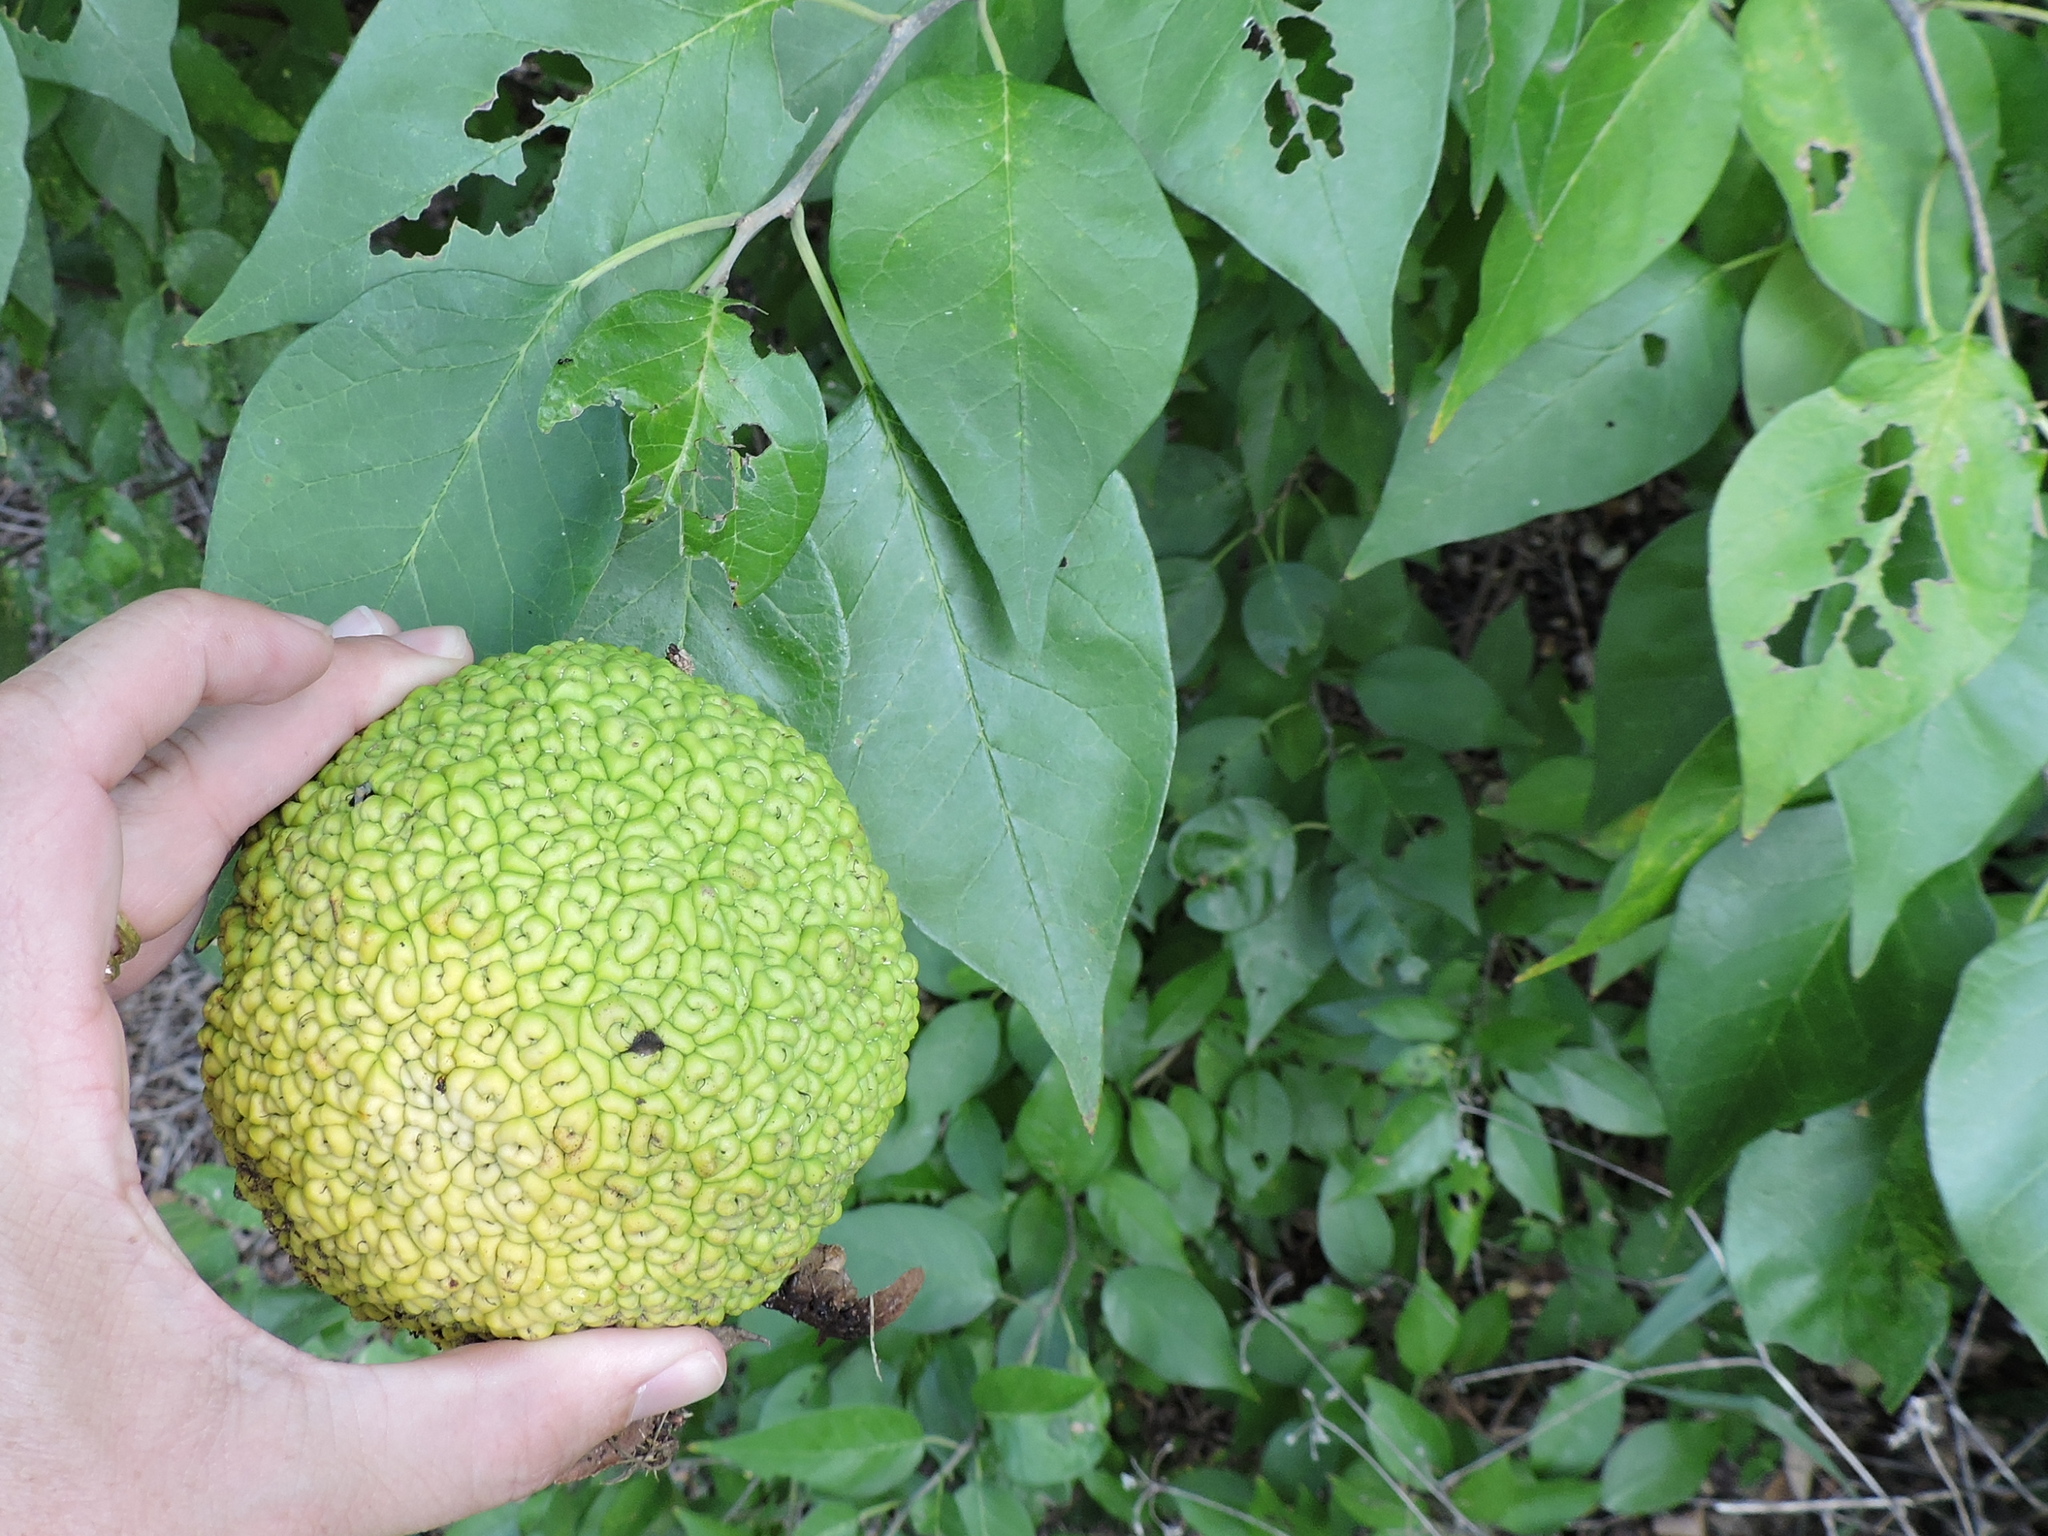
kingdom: Plantae
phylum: Tracheophyta
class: Magnoliopsida
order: Rosales
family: Moraceae
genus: Maclura
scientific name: Maclura pomifera
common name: Osage-orange
